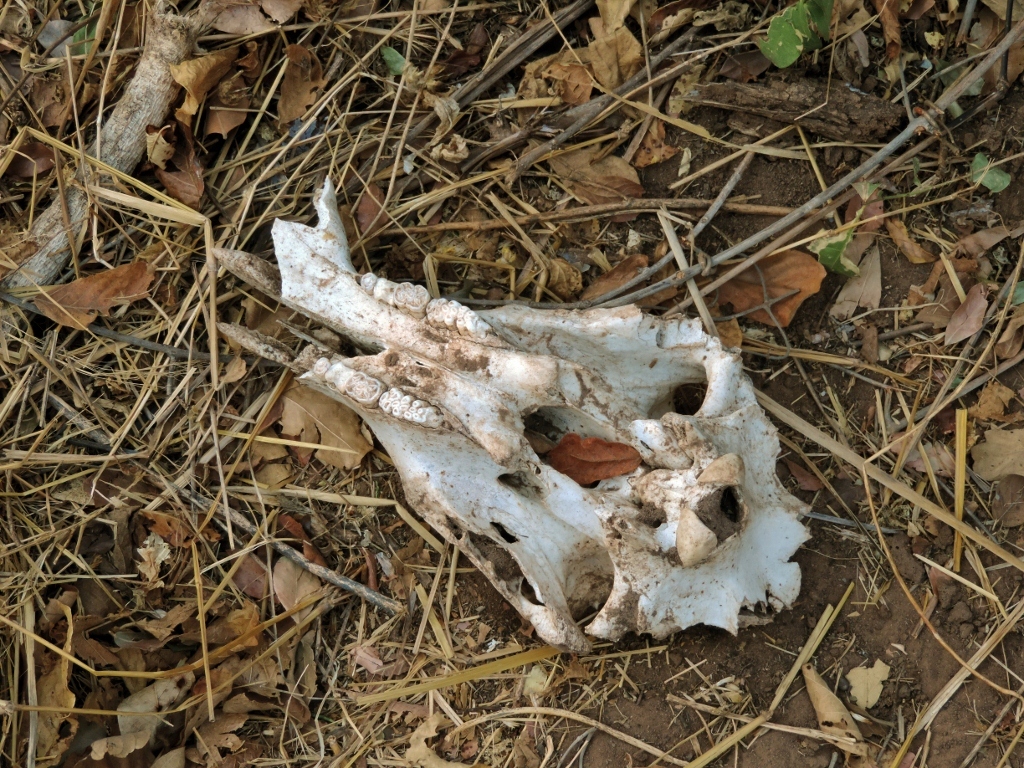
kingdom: Animalia
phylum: Chordata
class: Mammalia
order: Artiodactyla
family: Suidae
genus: Phacochoerus
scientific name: Phacochoerus africanus
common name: Common warthog
